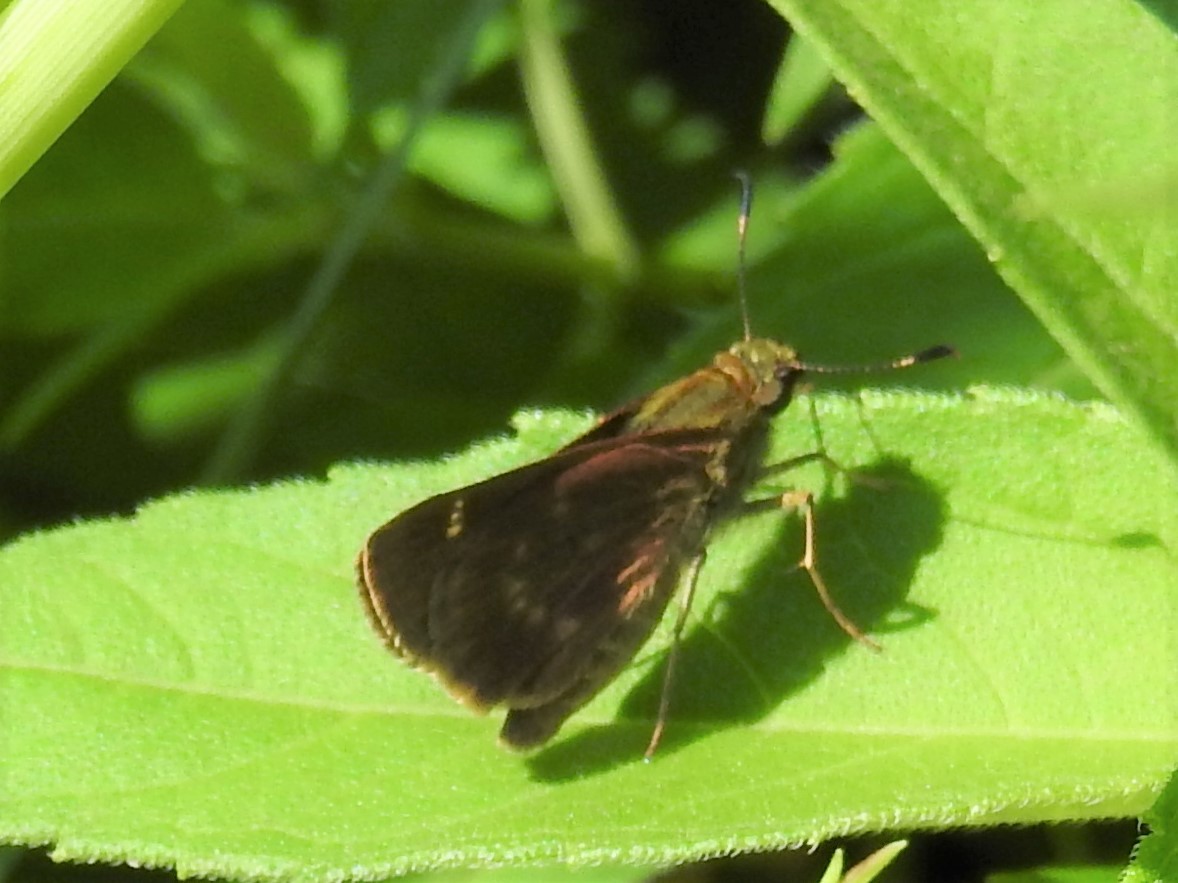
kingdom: Animalia
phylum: Arthropoda
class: Insecta
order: Lepidoptera
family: Hesperiidae
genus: Vernia
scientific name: Vernia verna
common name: Little glassywing
